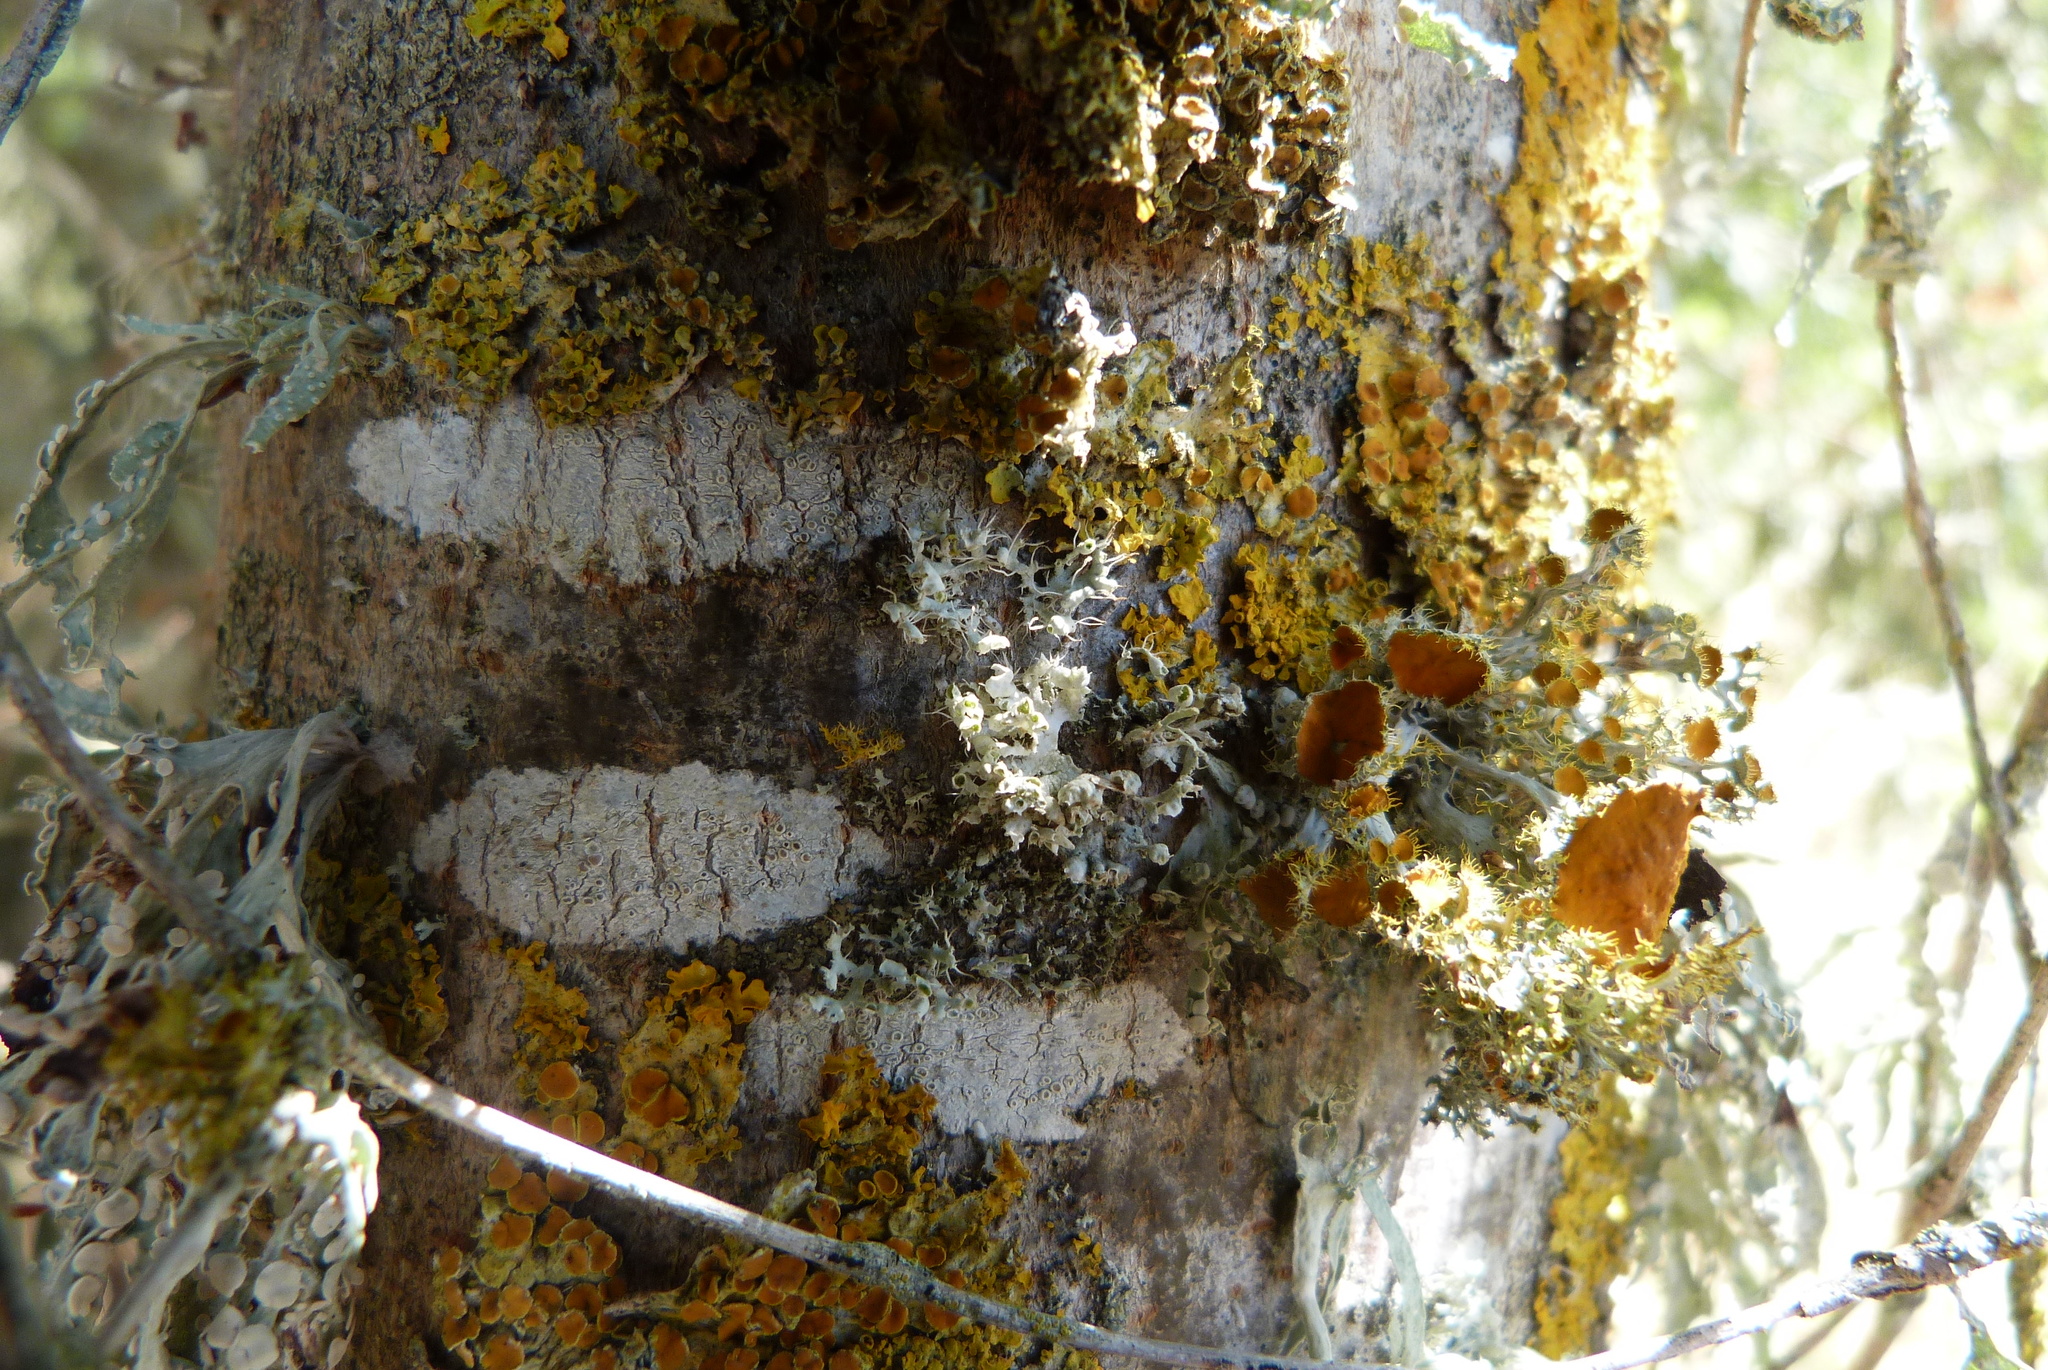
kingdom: Fungi
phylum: Ascomycota
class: Lecanoromycetes
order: Caliciales
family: Physciaceae
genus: Physcia
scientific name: Physcia adscendens
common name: Hooded rosette lichen
